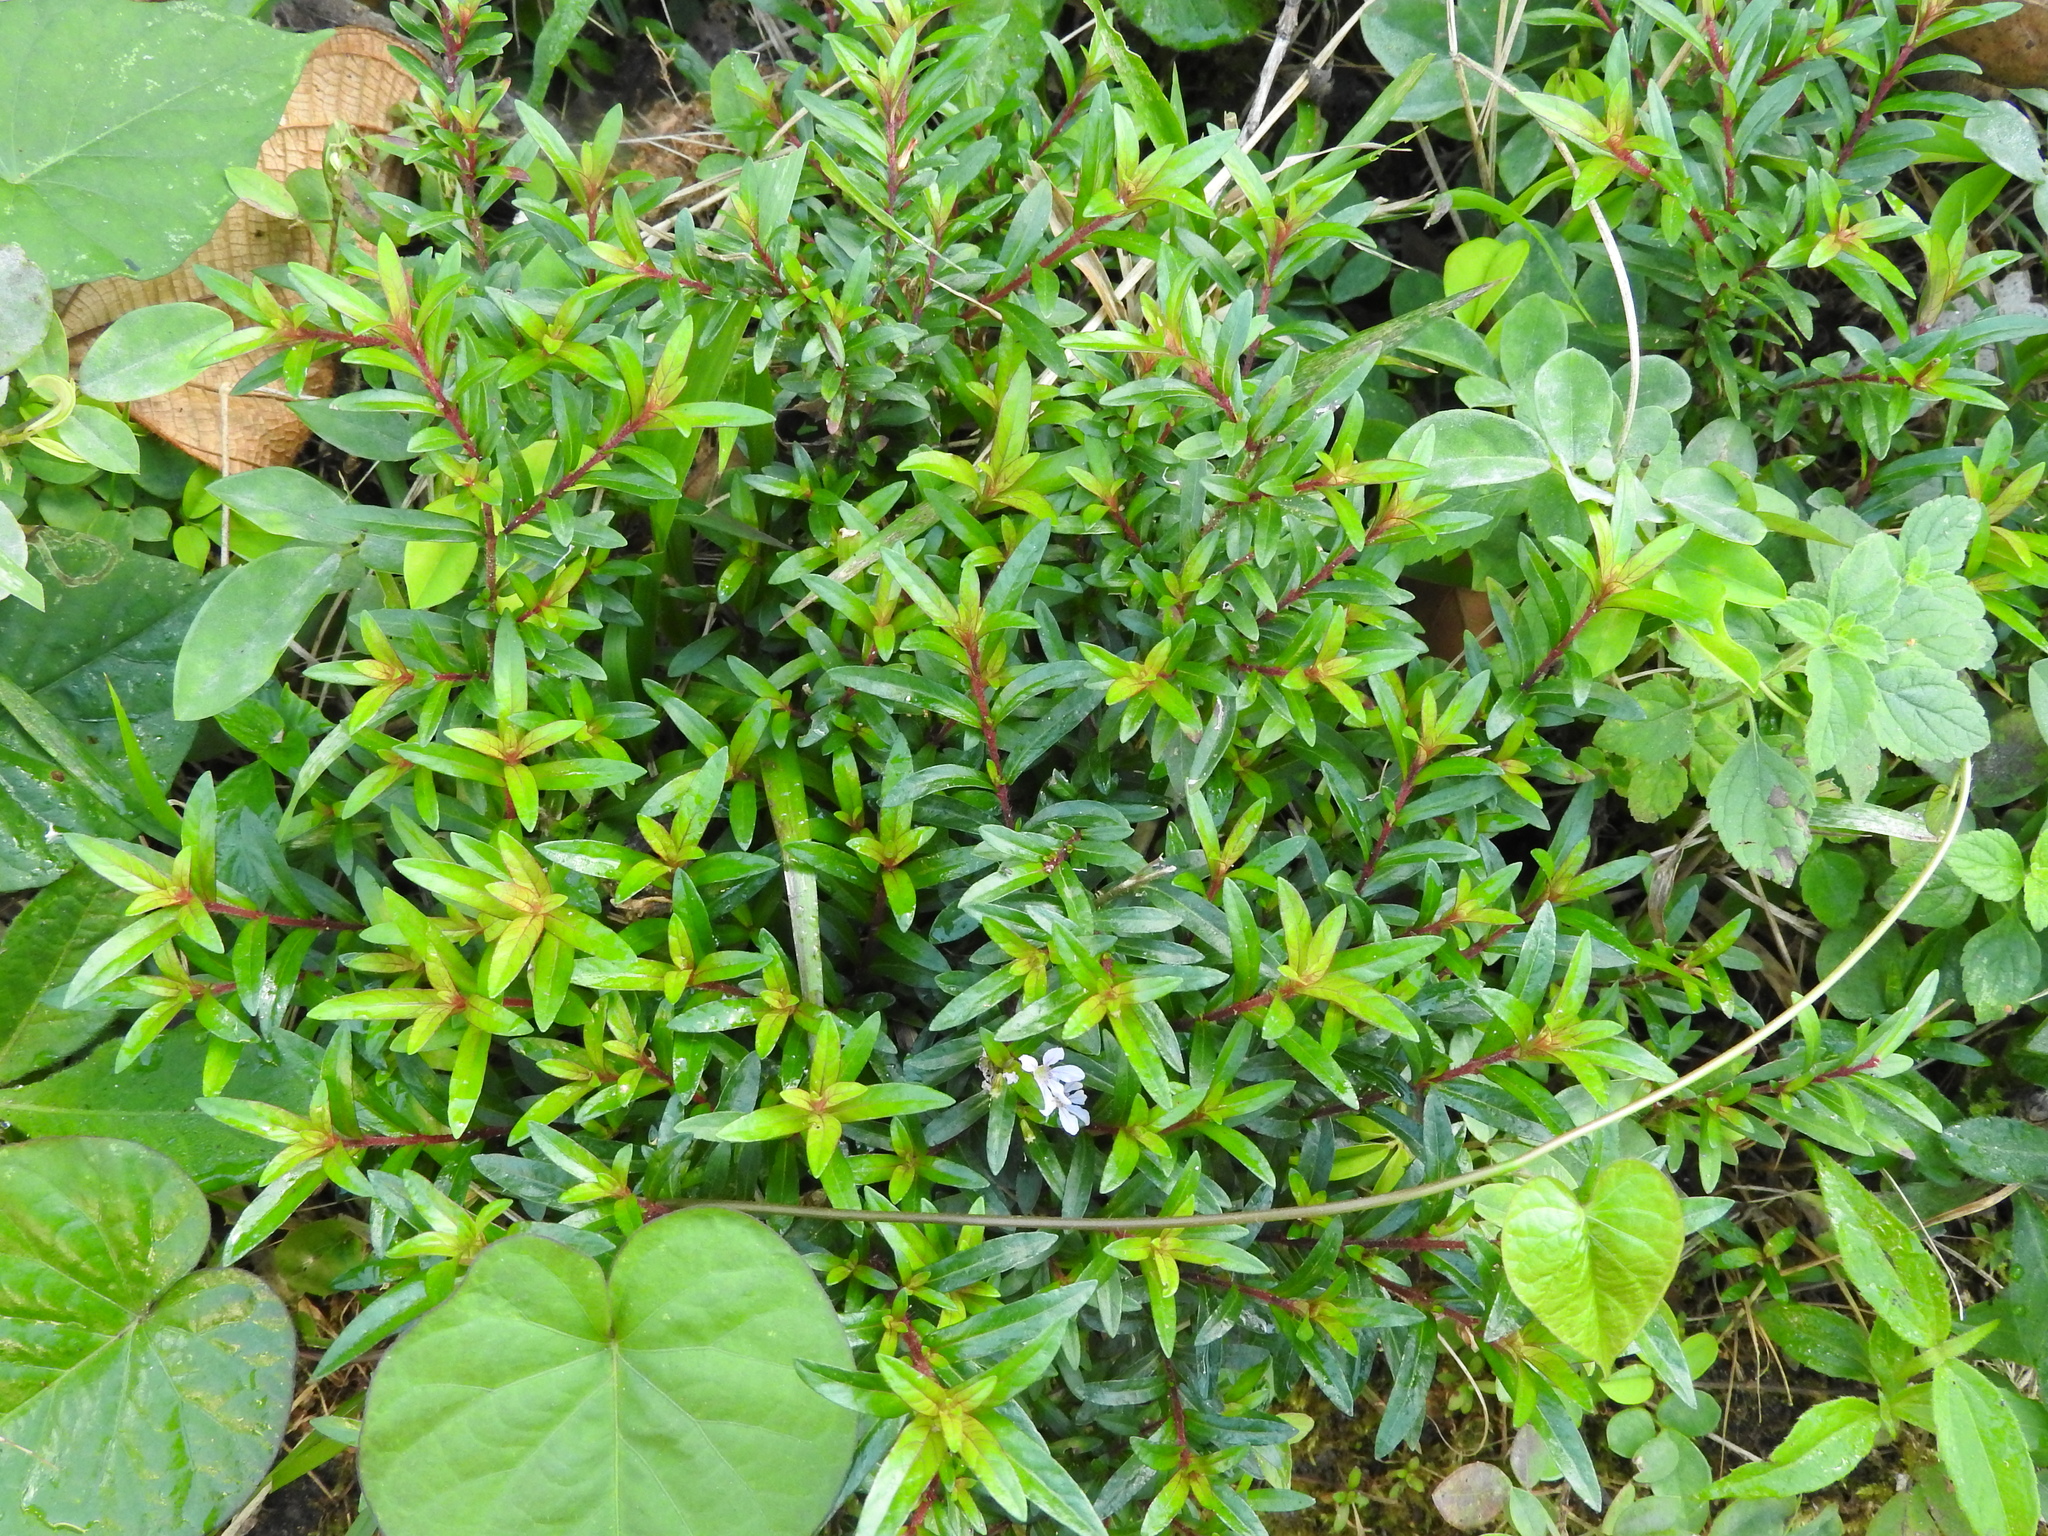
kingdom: Plantae
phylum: Tracheophyta
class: Magnoliopsida
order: Myrtales
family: Lythraceae
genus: Cuphea
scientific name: Cuphea hyssopifolia
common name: False heather
